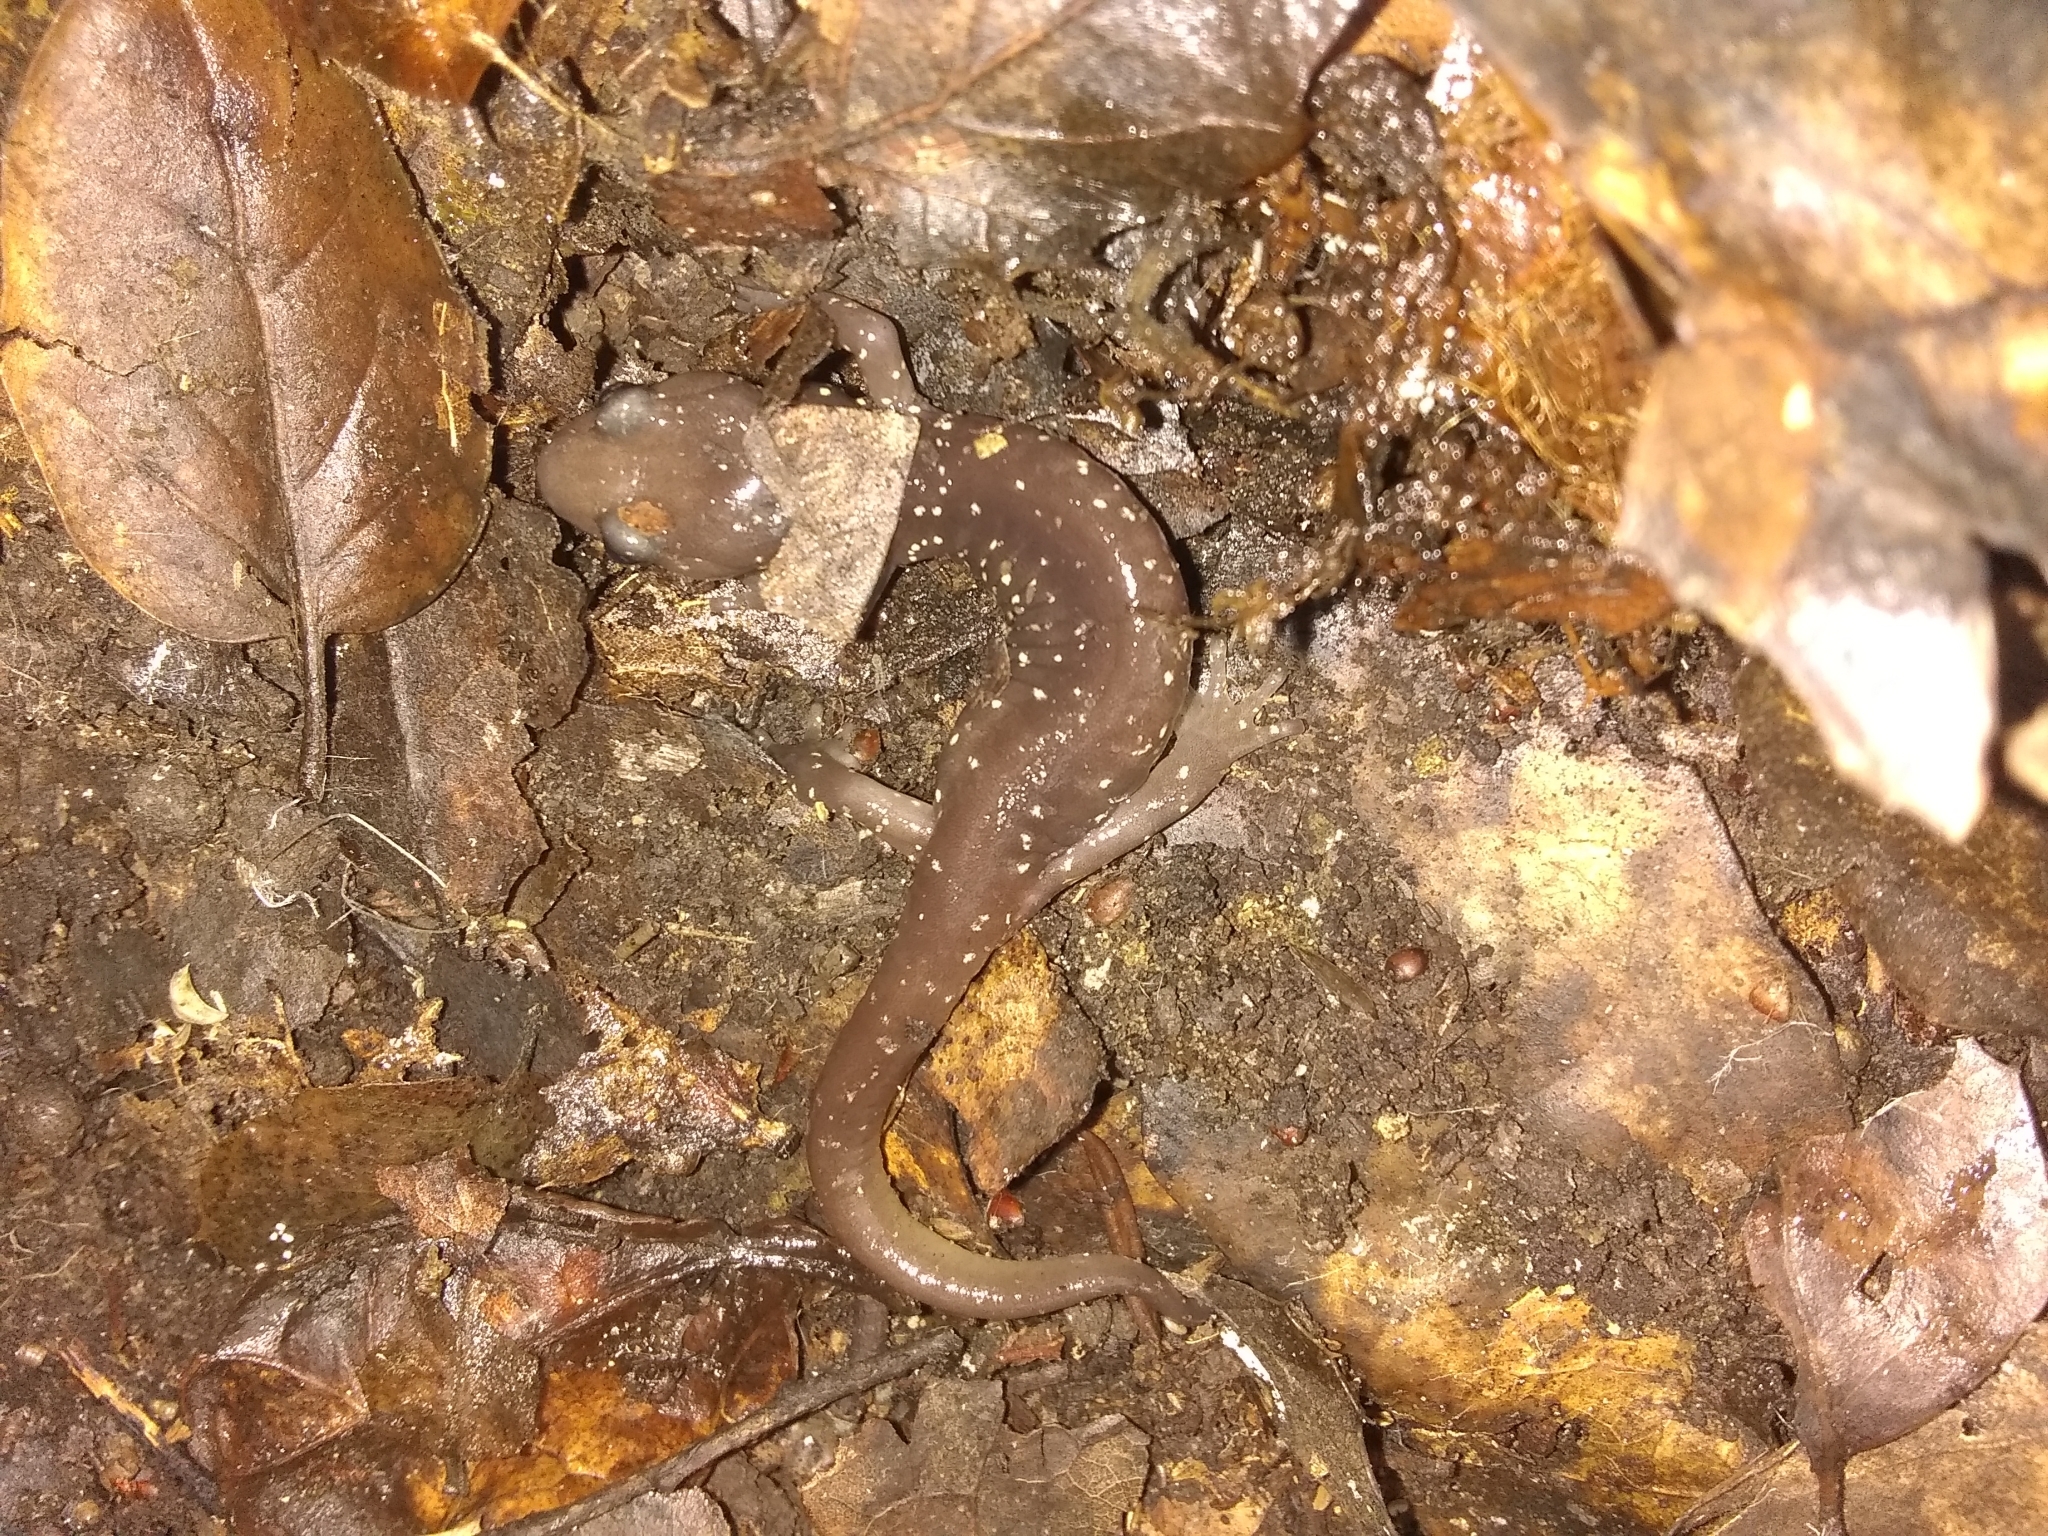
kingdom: Animalia
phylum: Chordata
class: Amphibia
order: Caudata
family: Plethodontidae
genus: Aneides
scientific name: Aneides lugubris
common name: Arboreal salamander
